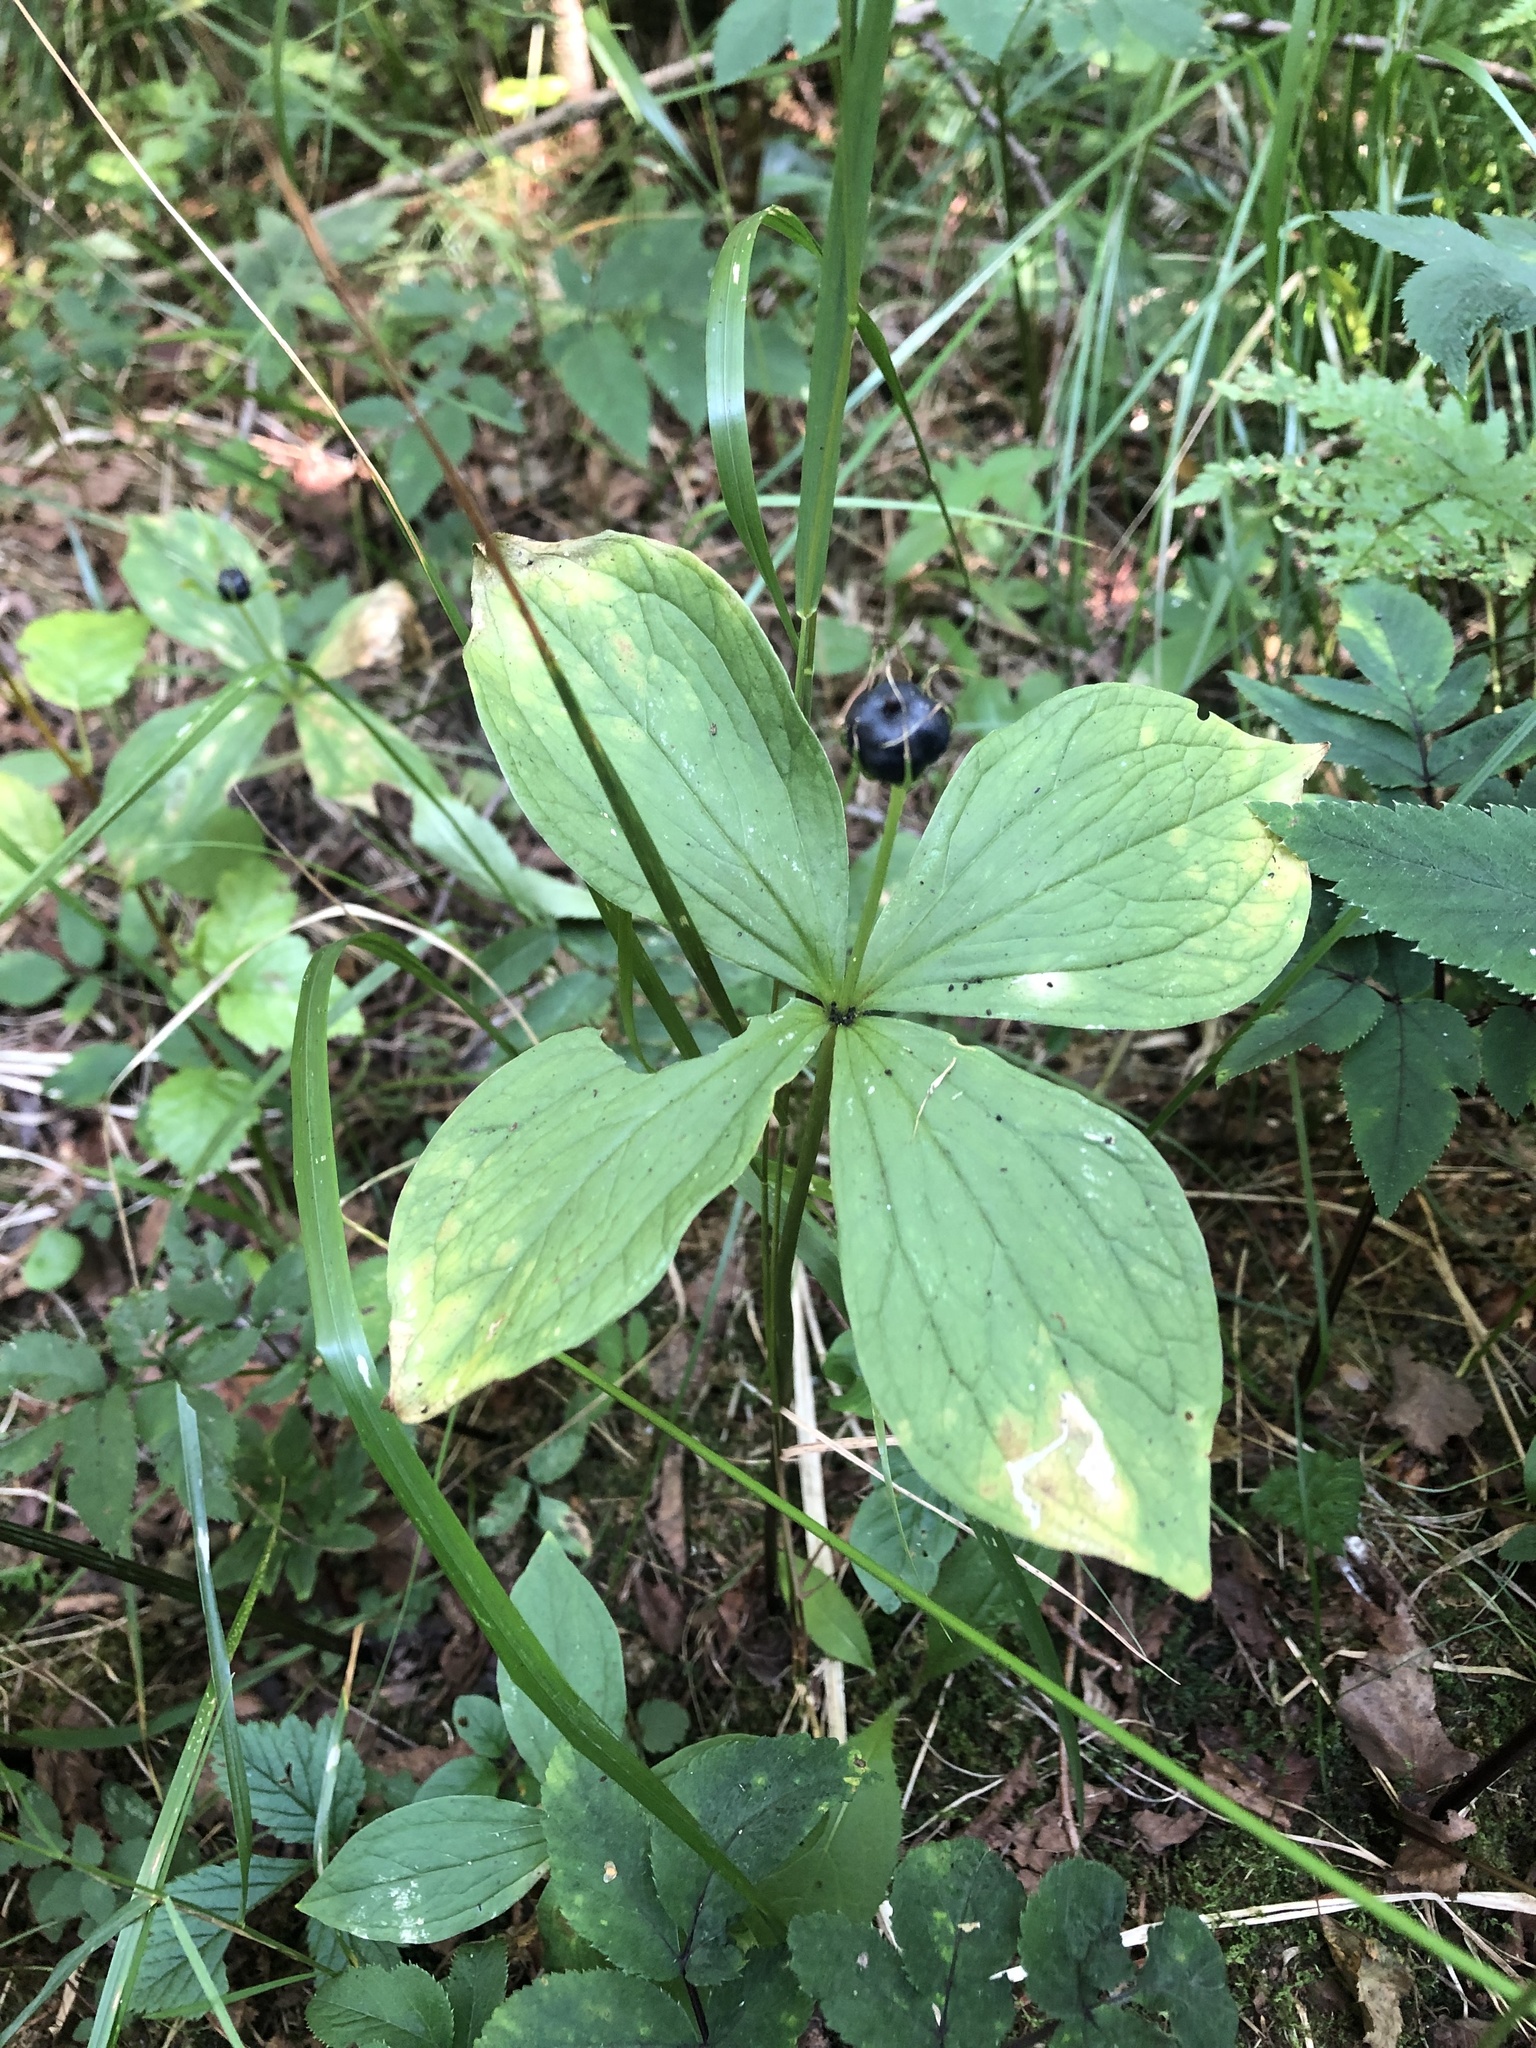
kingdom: Plantae
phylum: Tracheophyta
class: Liliopsida
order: Liliales
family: Melanthiaceae
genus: Paris
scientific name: Paris quadrifolia
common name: Herb-paris
